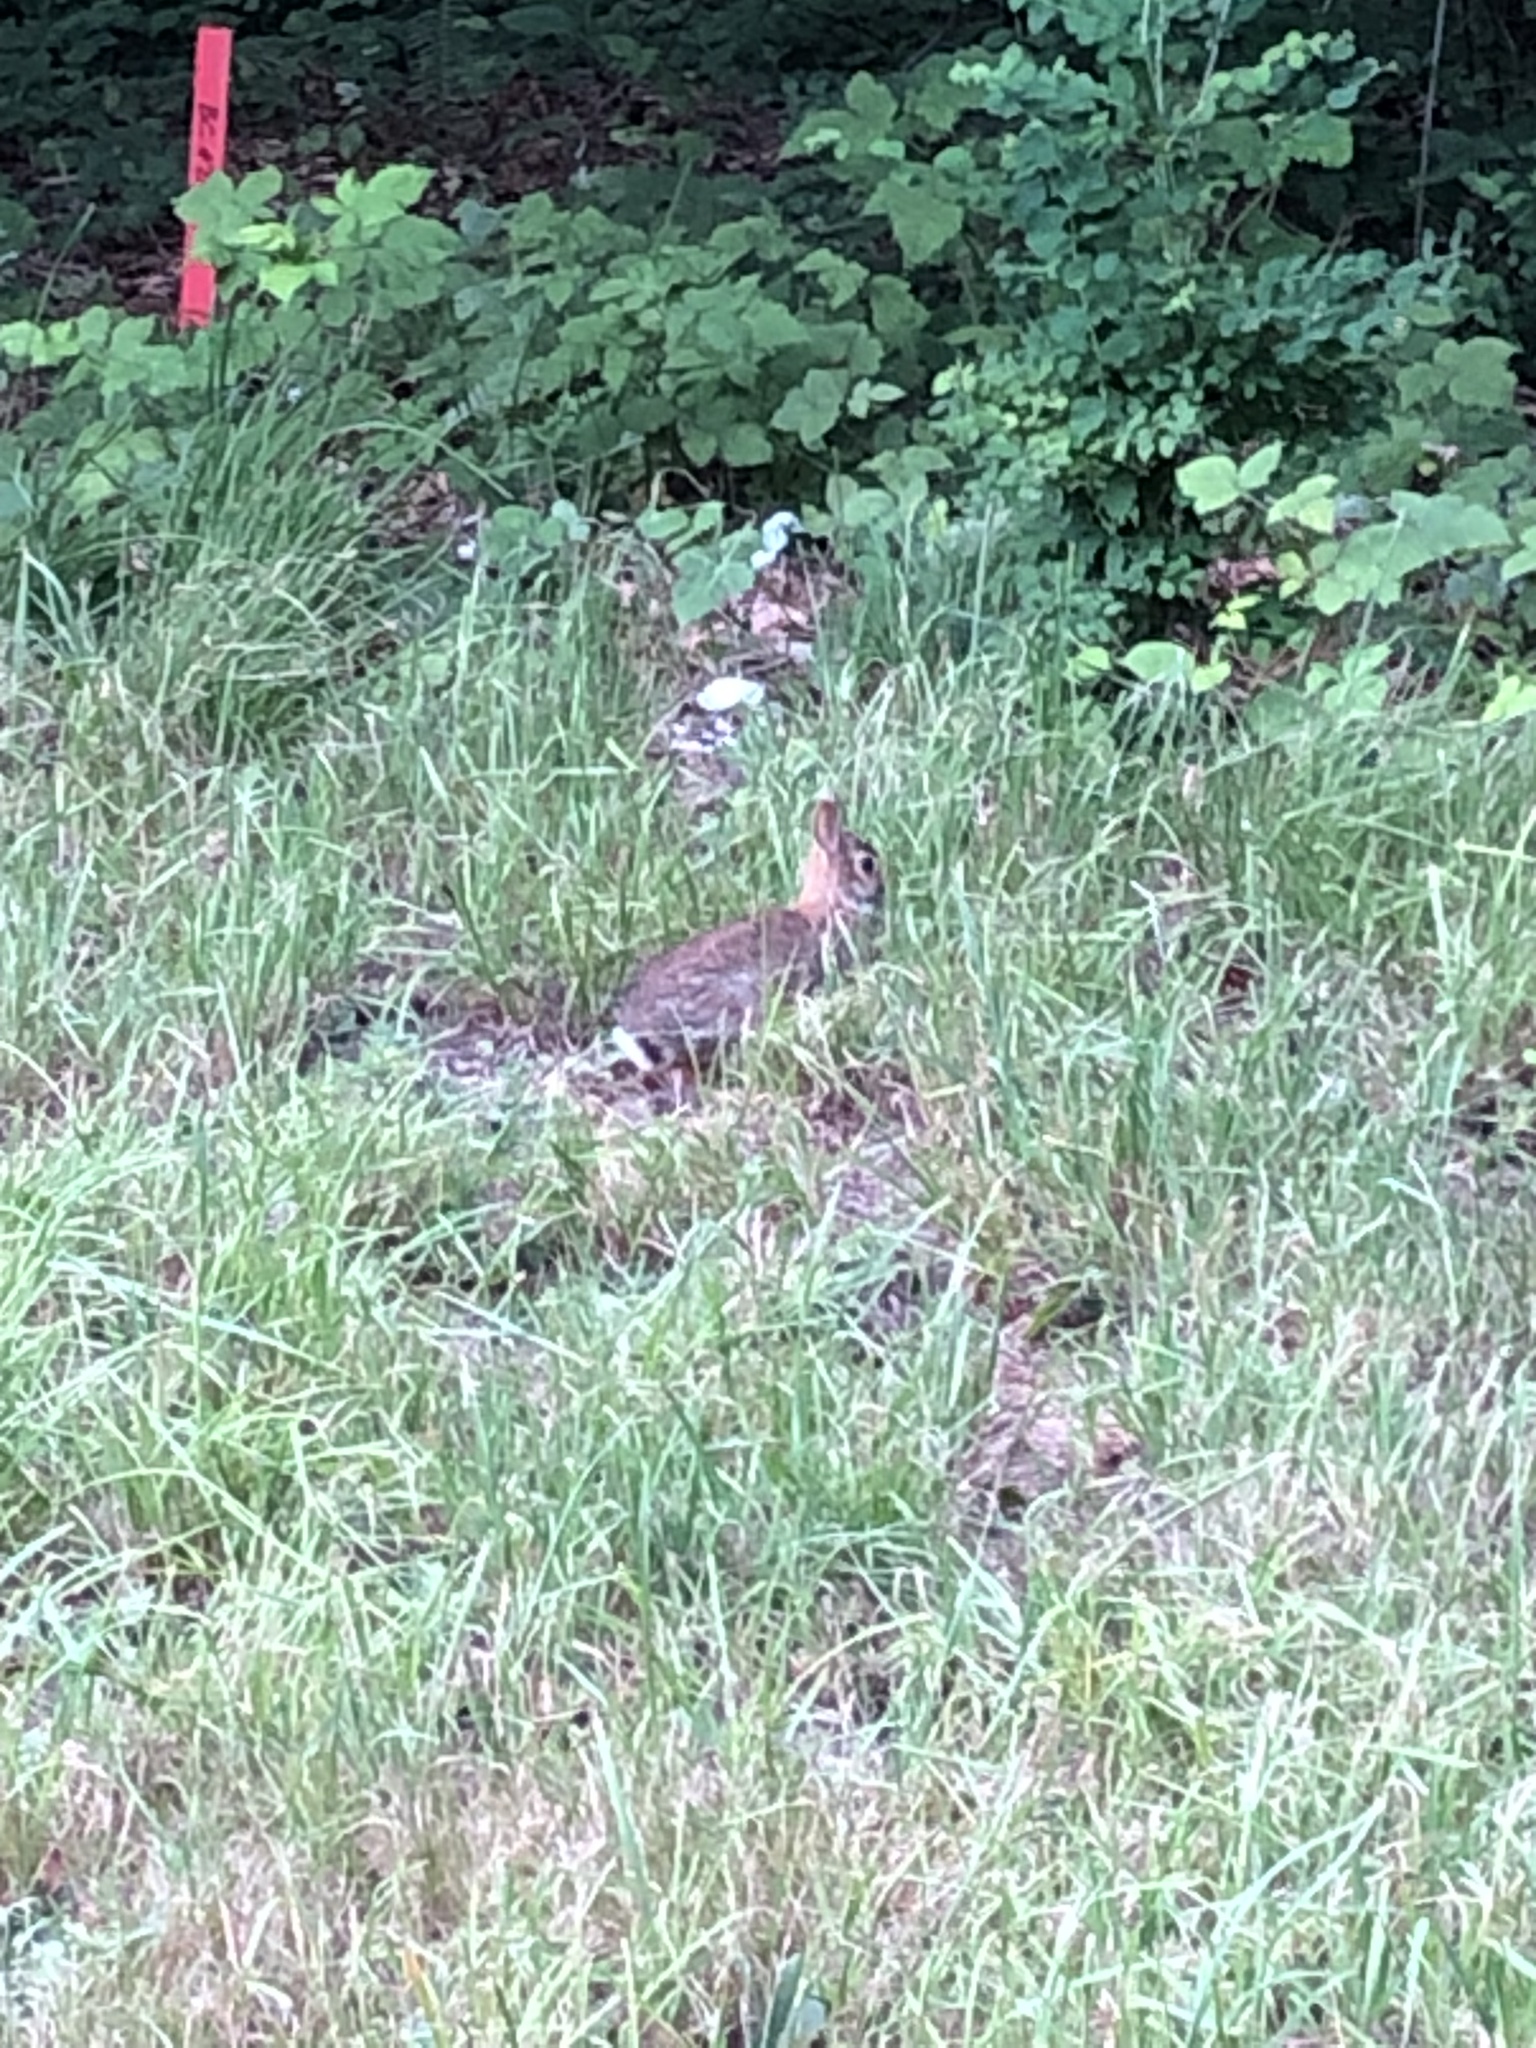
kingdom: Animalia
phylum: Chordata
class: Mammalia
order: Lagomorpha
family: Leporidae
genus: Sylvilagus
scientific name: Sylvilagus floridanus
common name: Eastern cottontail
